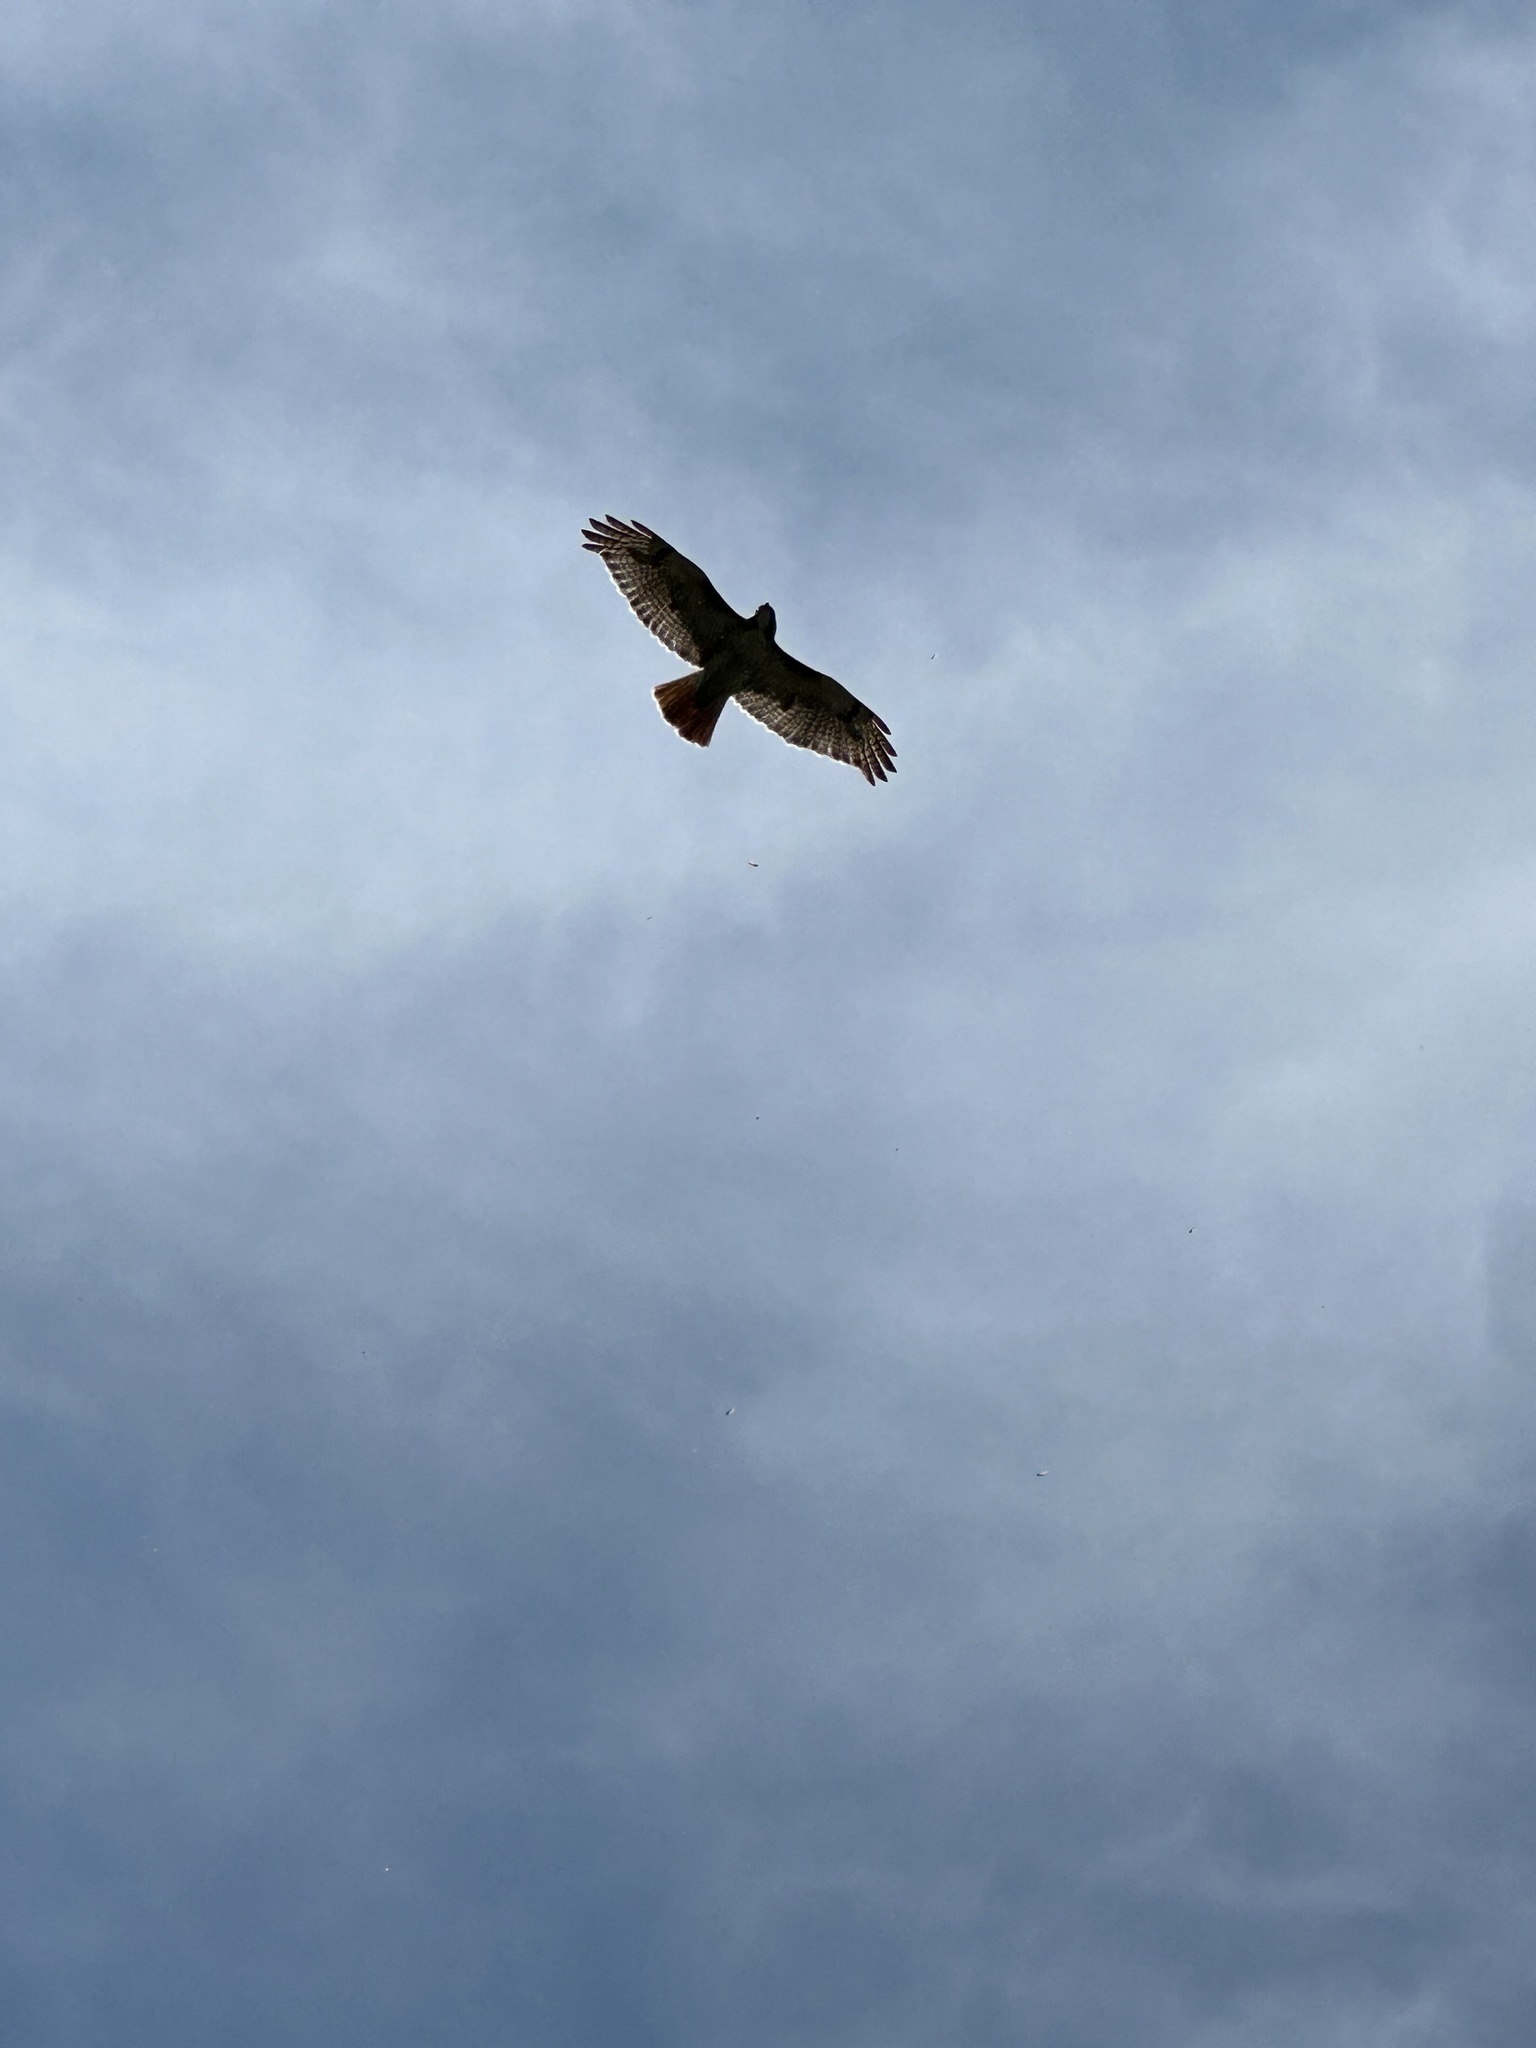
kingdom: Animalia
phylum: Chordata
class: Aves
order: Accipitriformes
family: Accipitridae
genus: Buteo
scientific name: Buteo jamaicensis
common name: Red-tailed hawk
